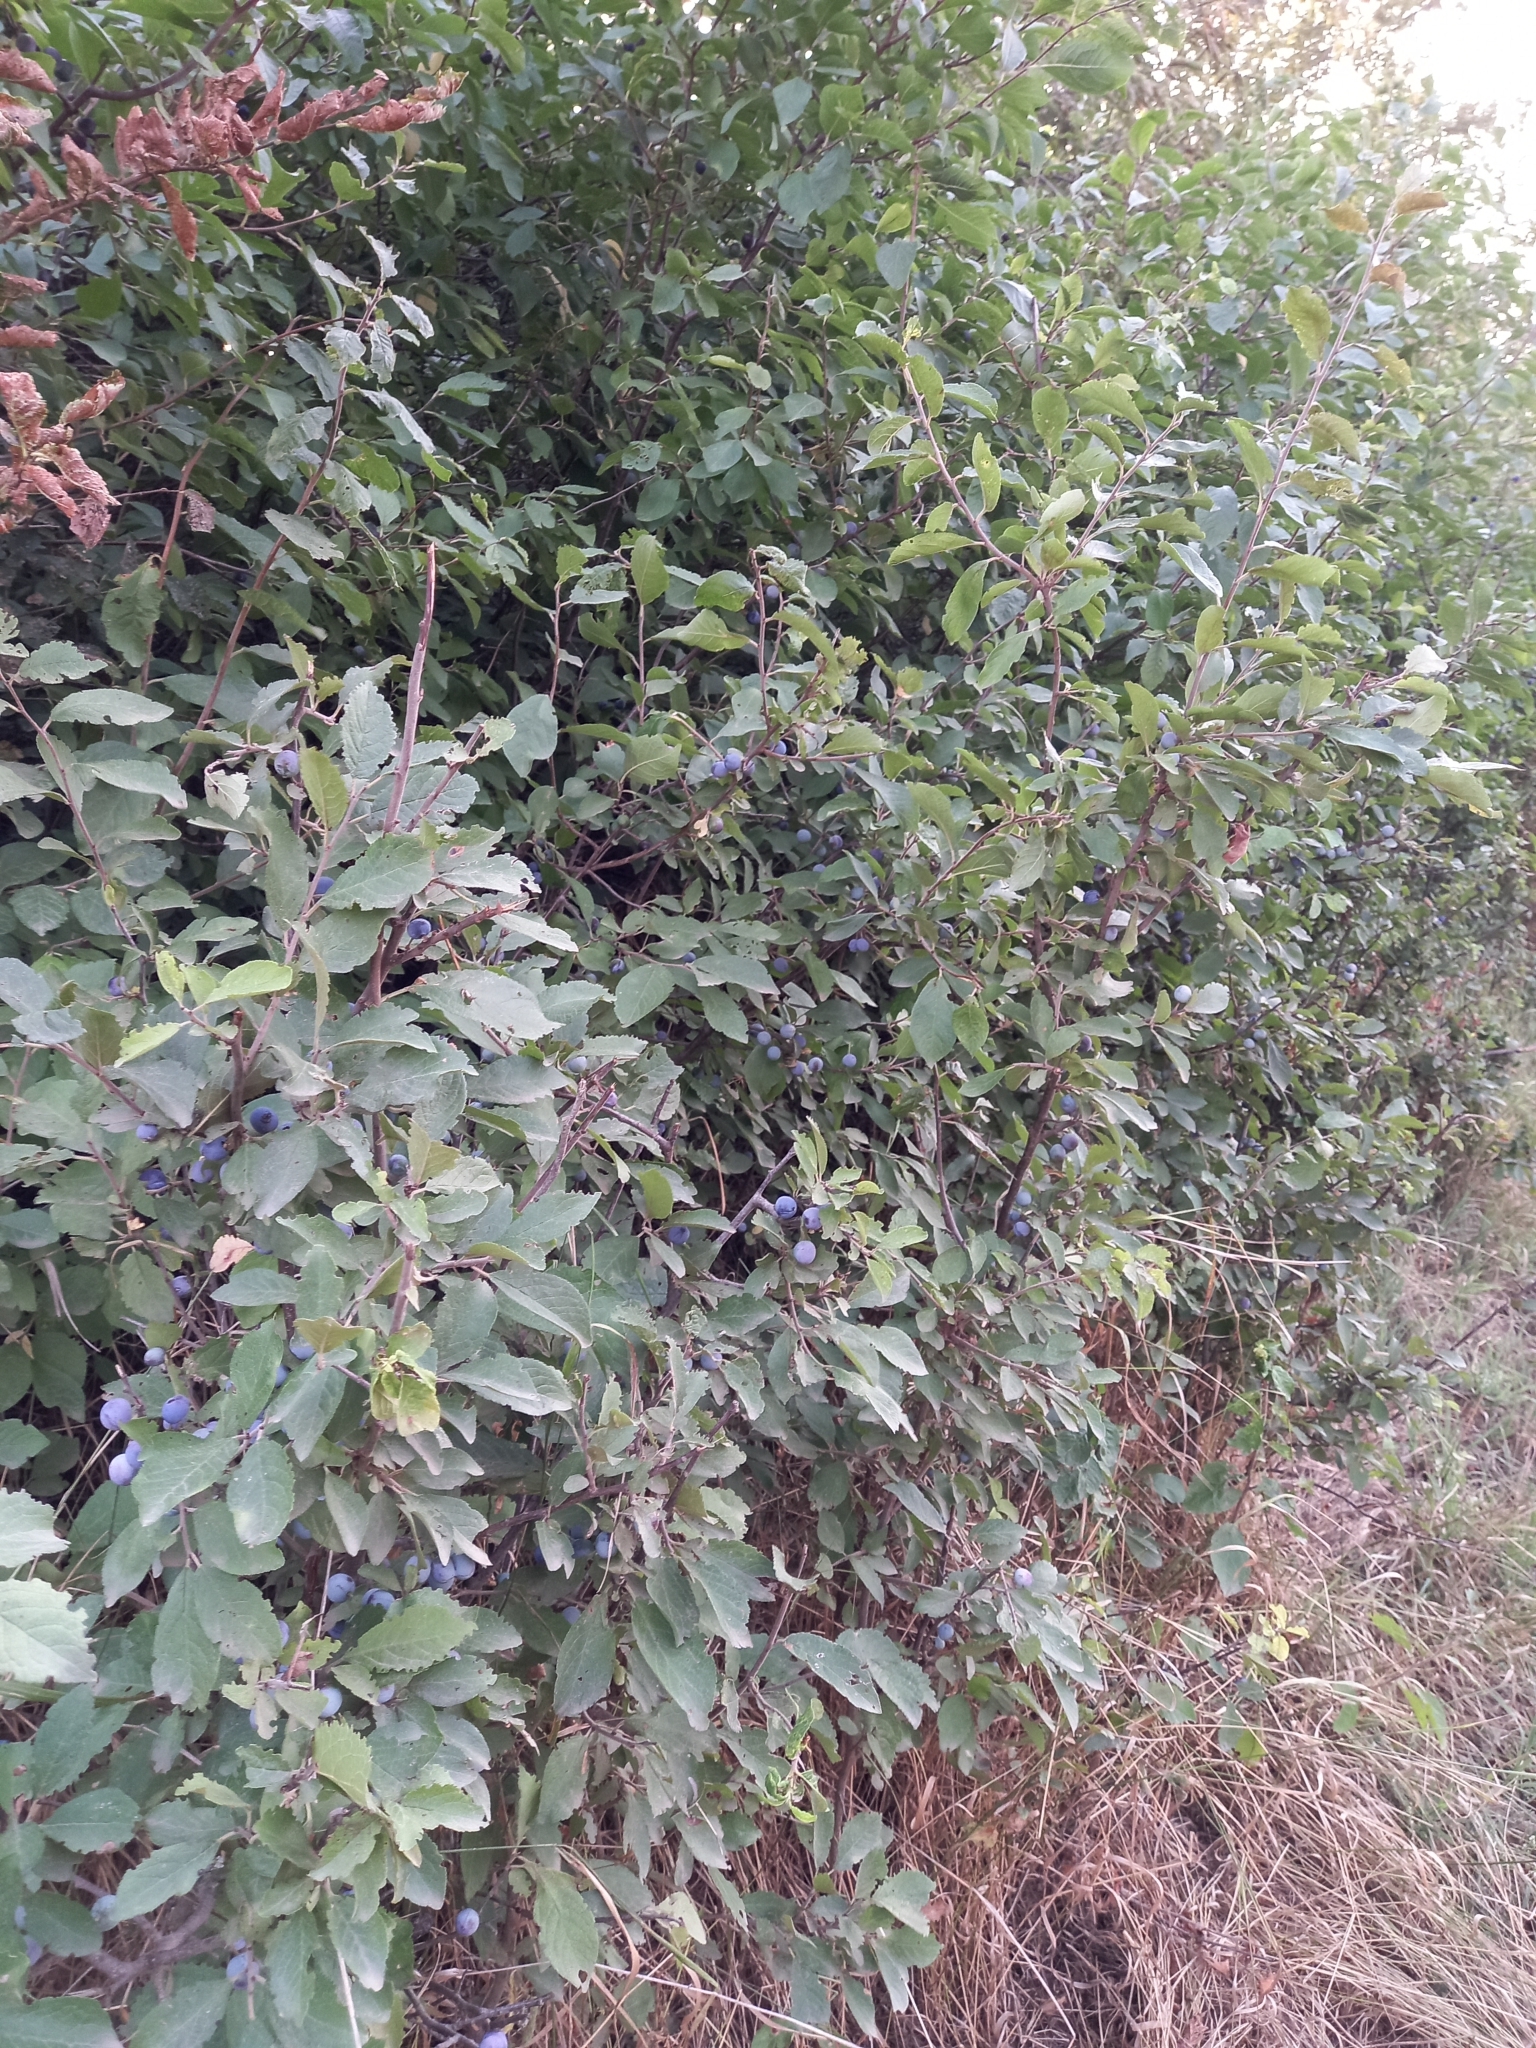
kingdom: Plantae
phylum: Tracheophyta
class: Magnoliopsida
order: Rosales
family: Rosaceae
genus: Prunus
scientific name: Prunus spinosa
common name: Blackthorn
